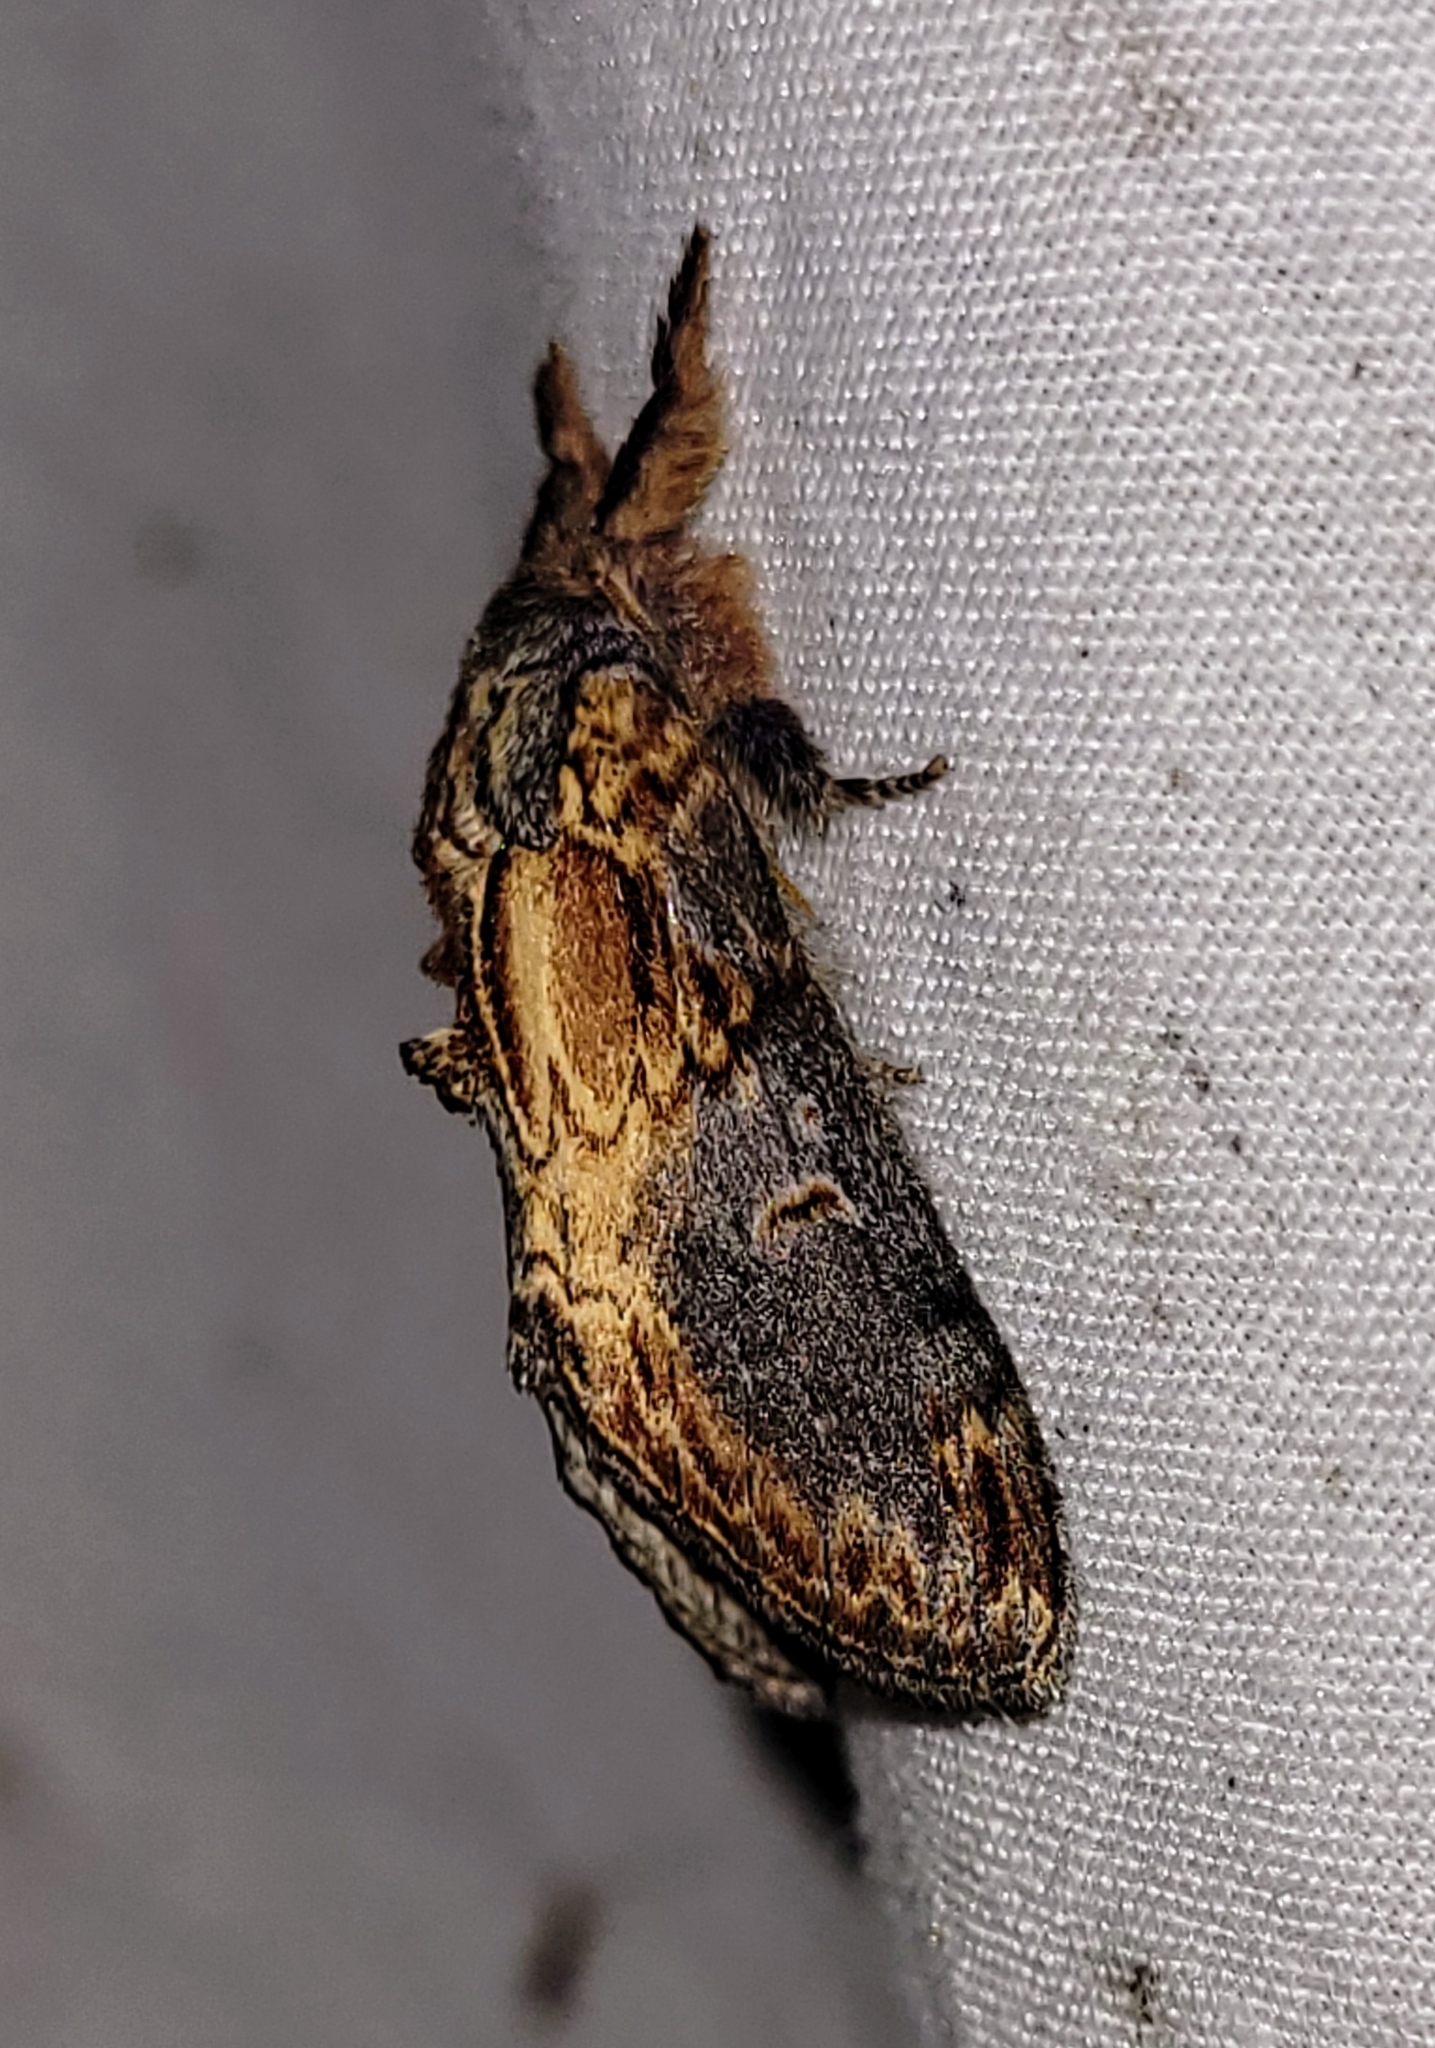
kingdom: Animalia
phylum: Arthropoda
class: Insecta
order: Lepidoptera
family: Notodontidae
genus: Notodonta
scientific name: Notodonta
